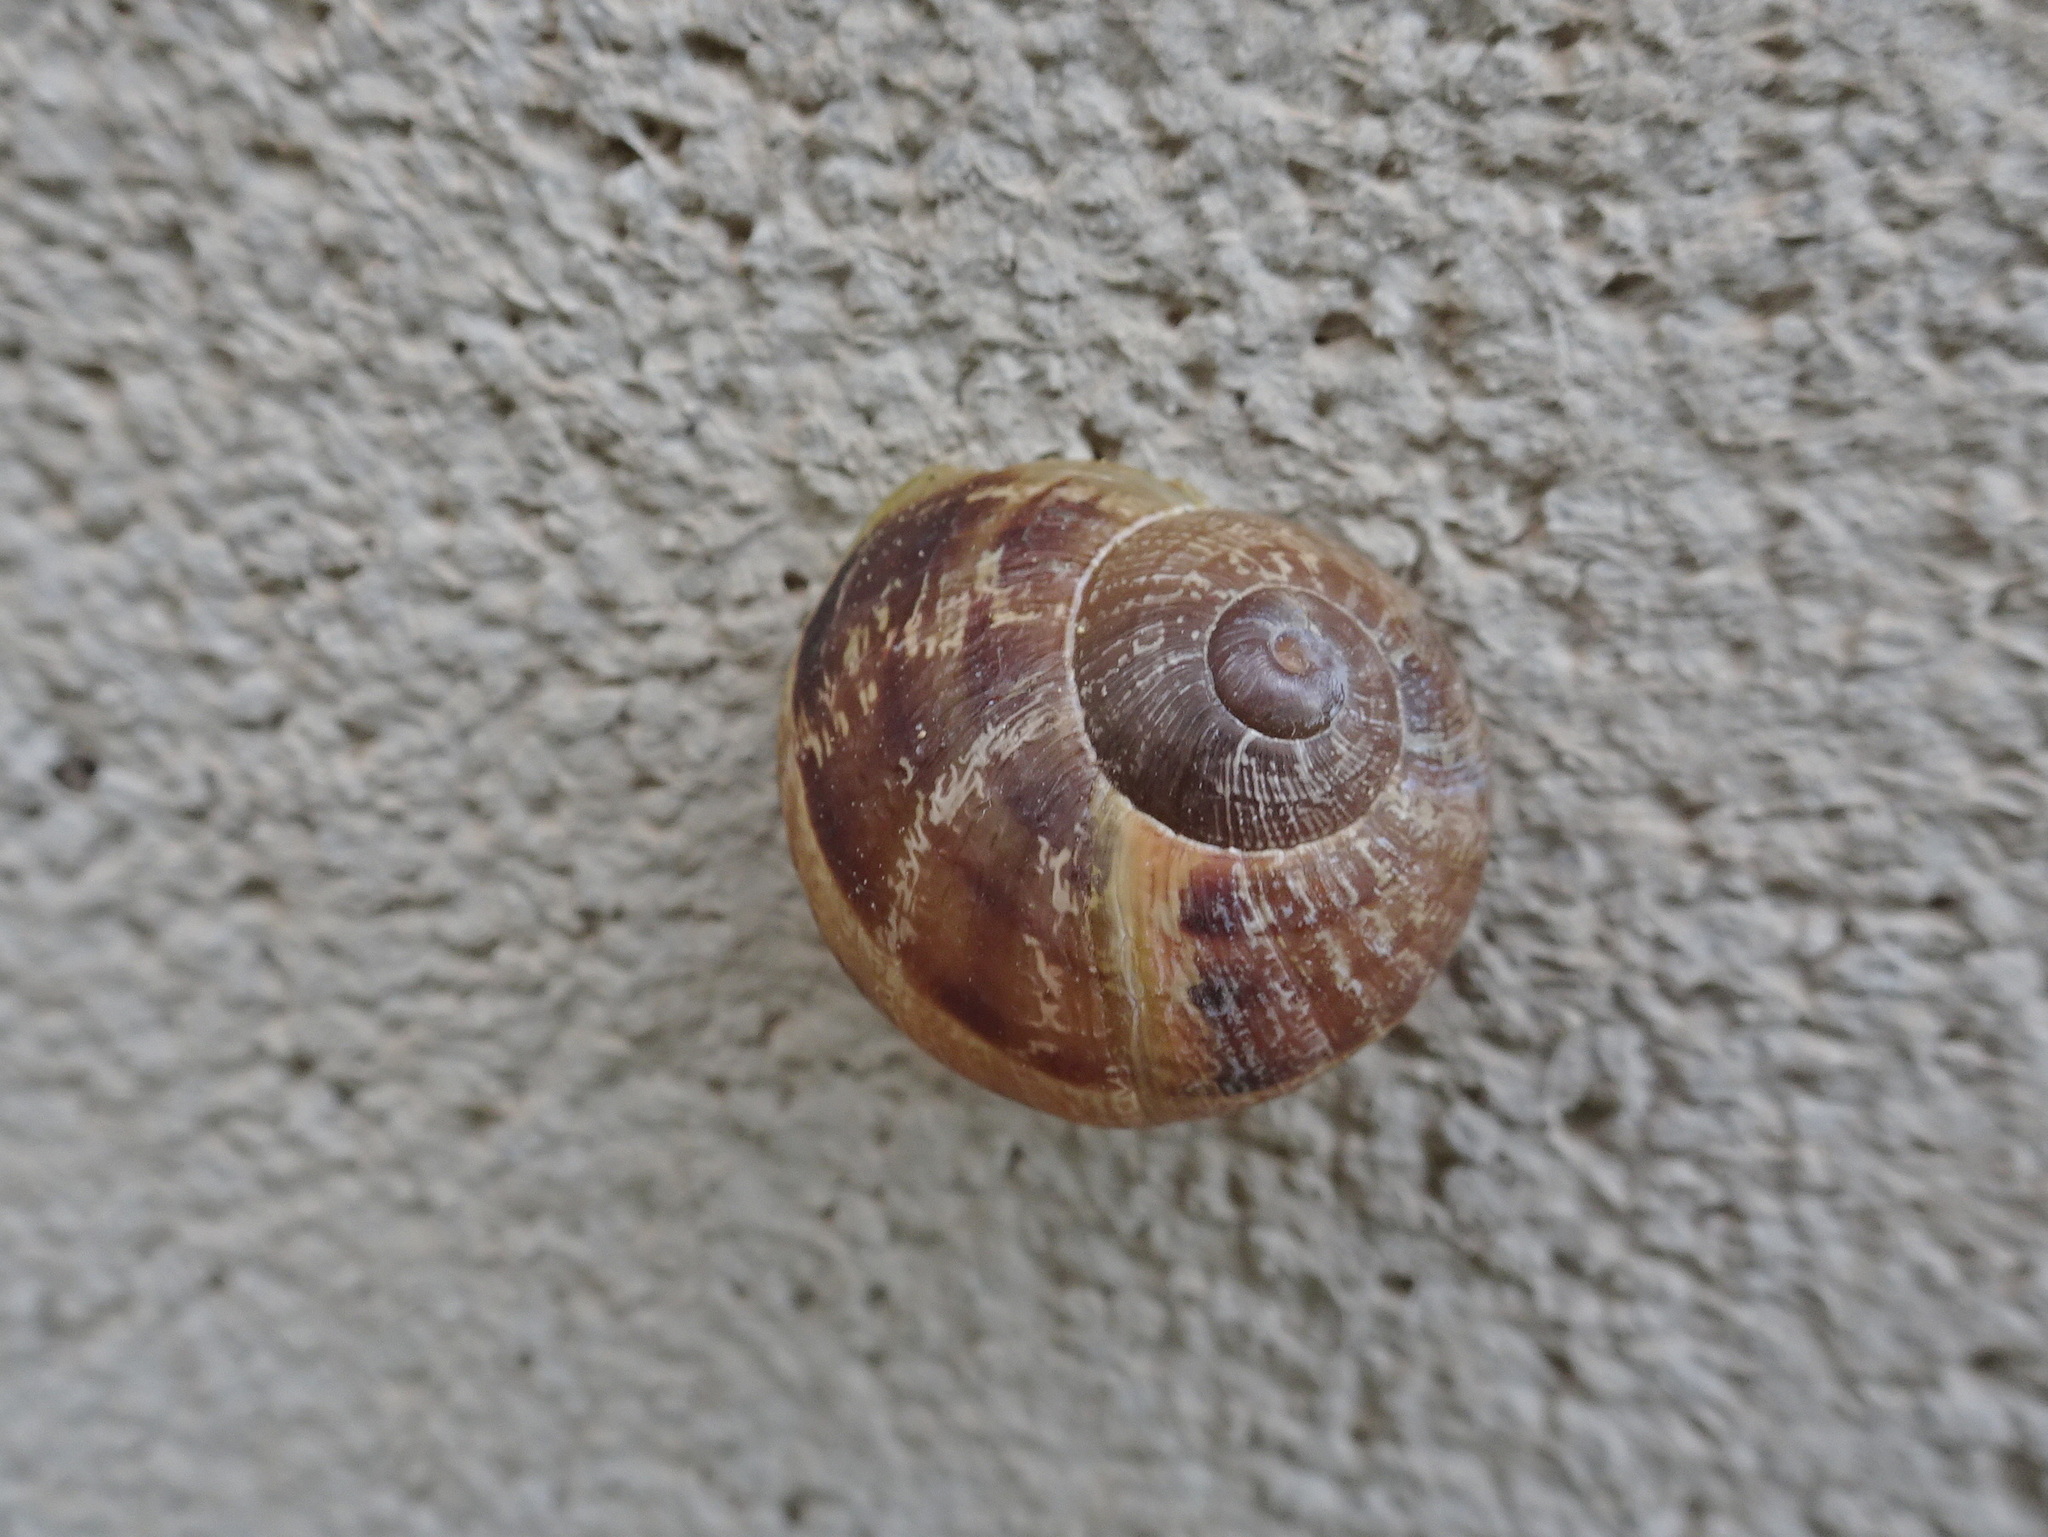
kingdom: Animalia
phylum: Mollusca
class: Gastropoda
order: Stylommatophora
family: Helicidae
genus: Cornu
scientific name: Cornu aspersum
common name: Brown garden snail
